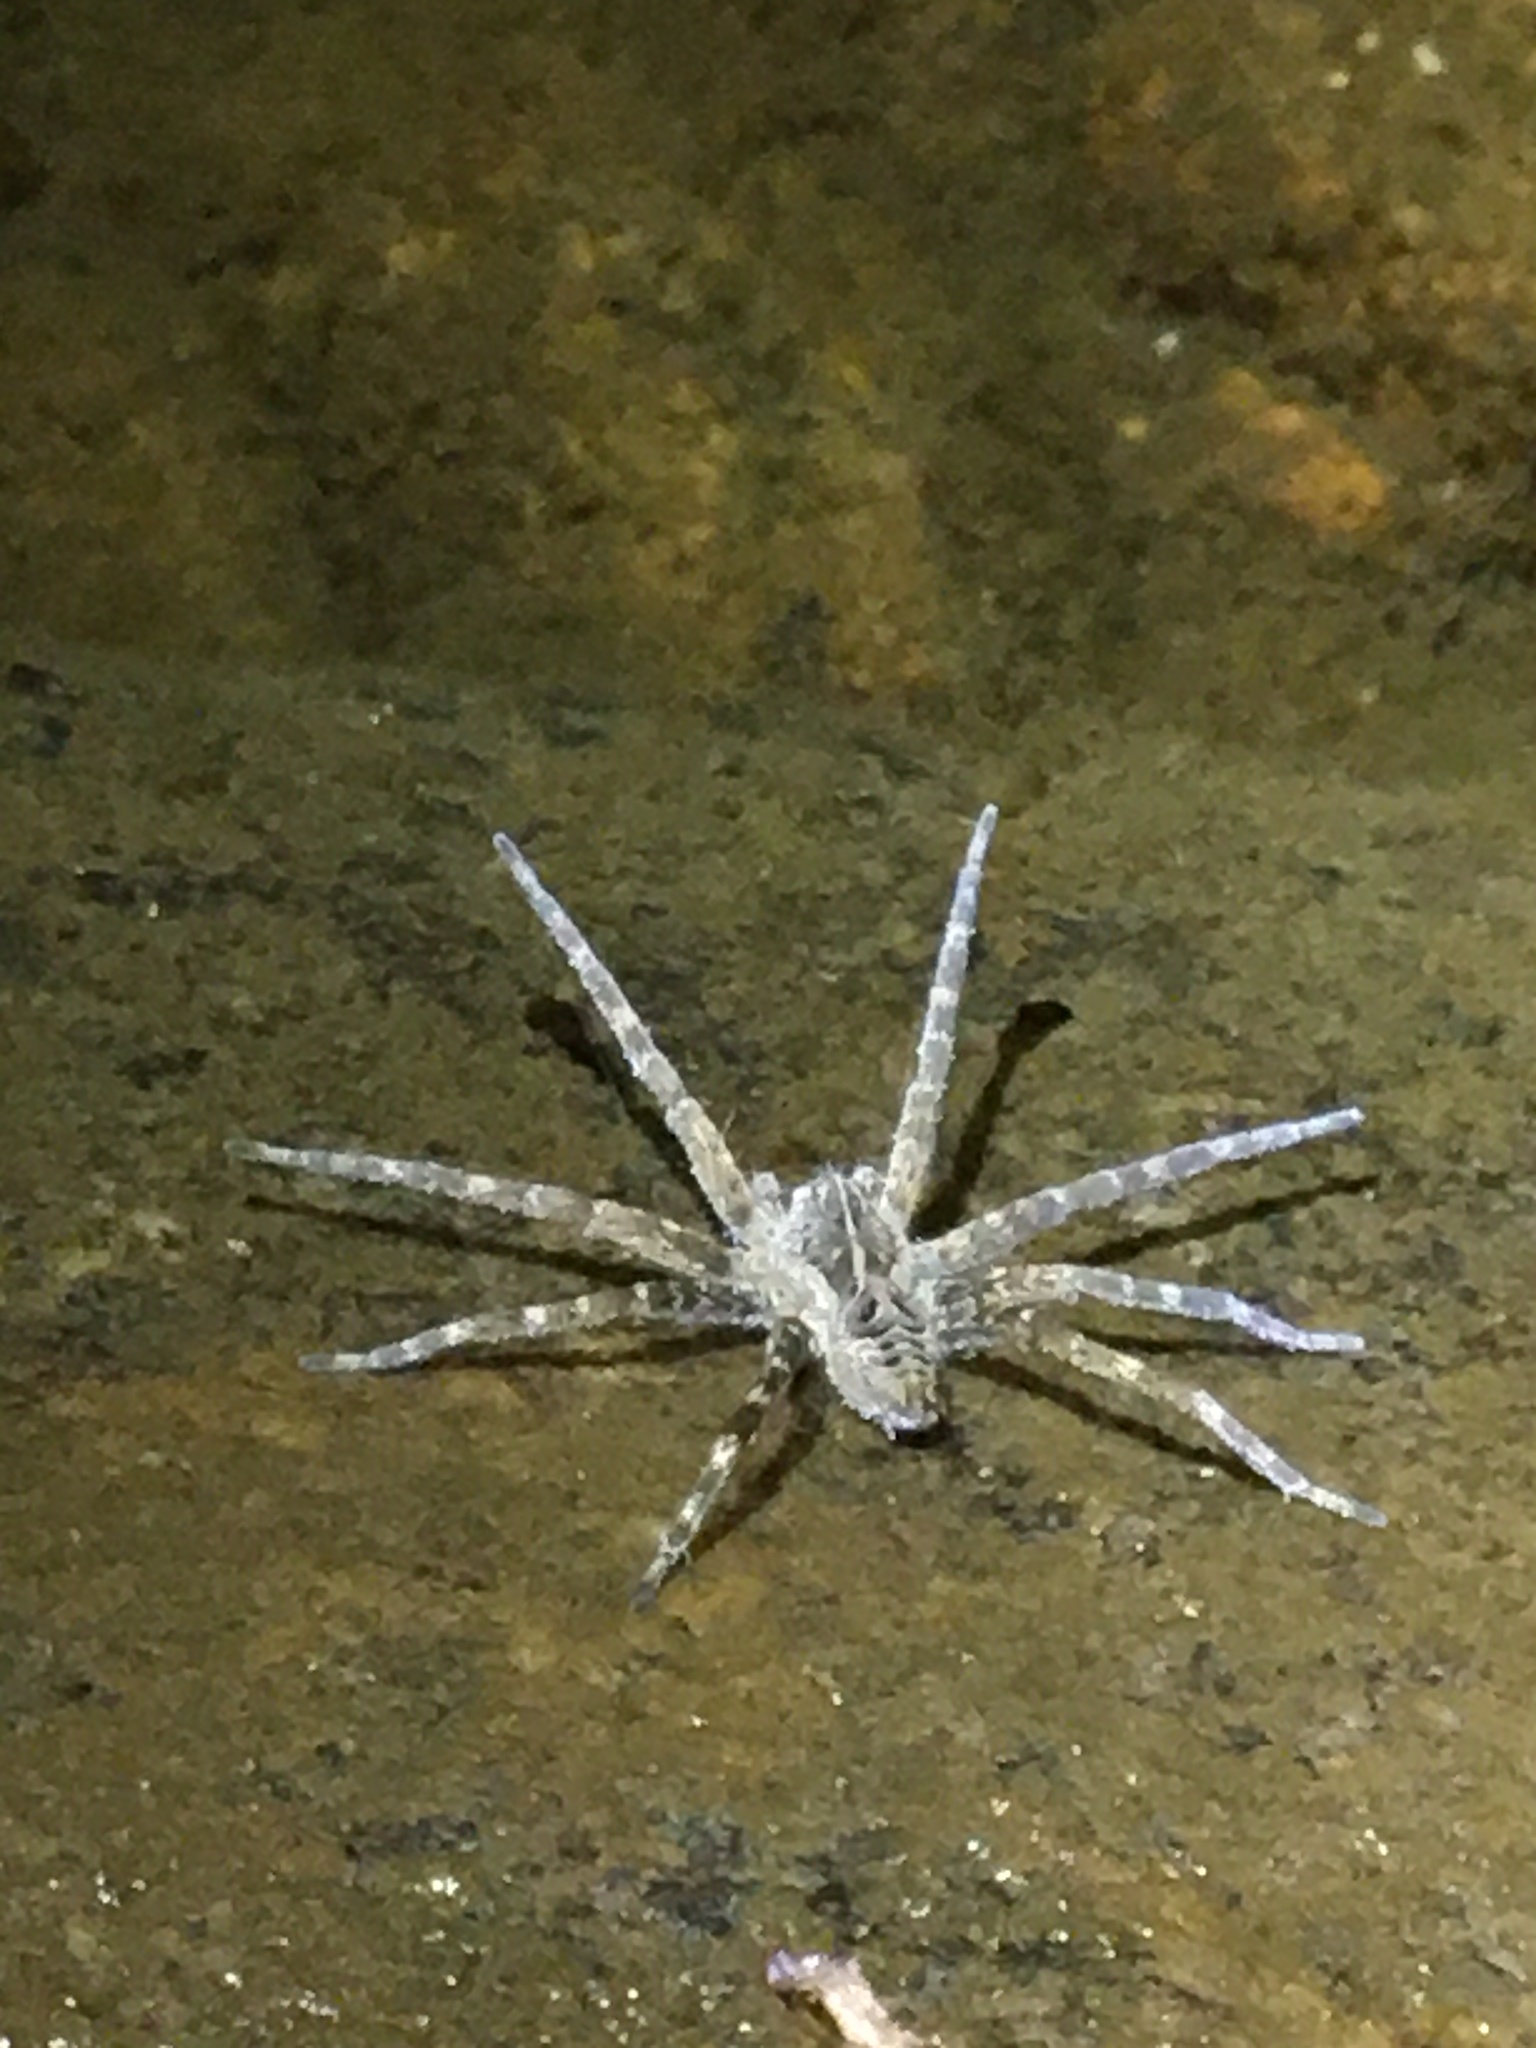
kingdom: Animalia
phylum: Arthropoda
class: Arachnida
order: Araneae
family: Pisauridae
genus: Dolomedes
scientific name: Dolomedes scriptus
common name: Striped fishing spider
